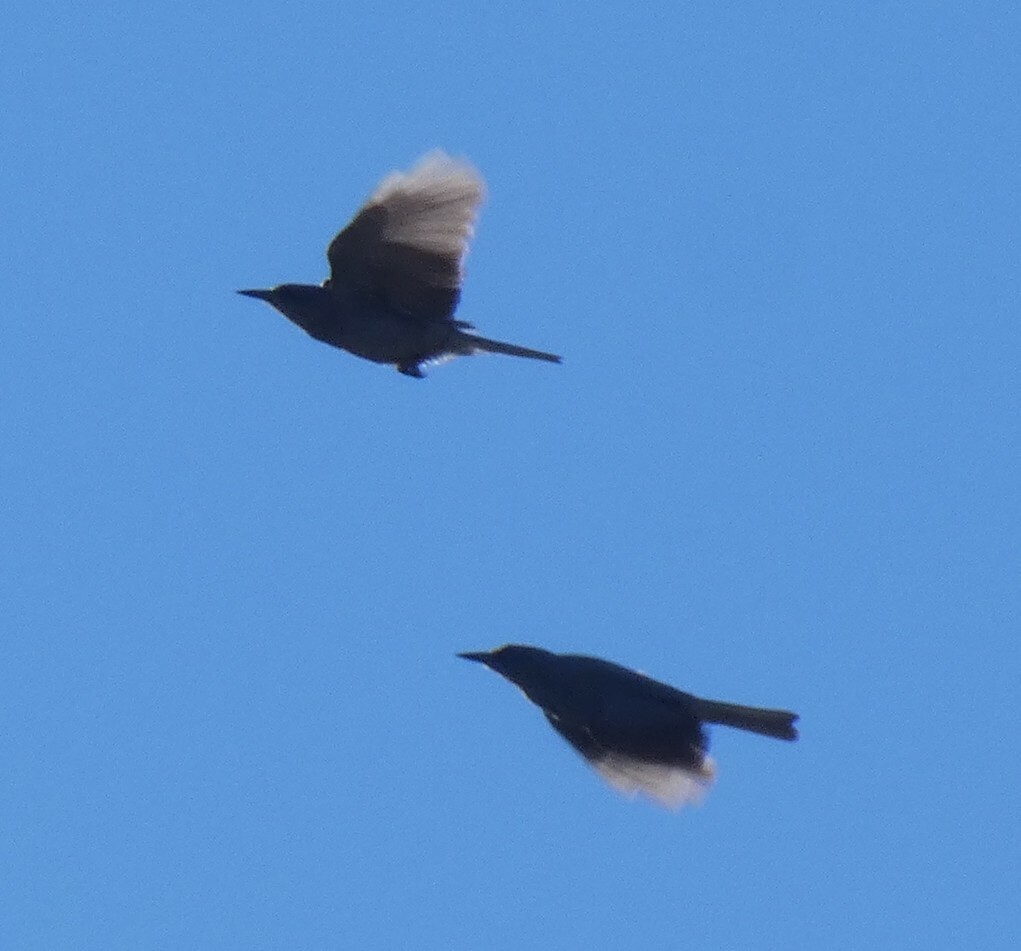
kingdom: Animalia
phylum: Chordata
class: Aves
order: Passeriformes
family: Corvidae
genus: Gymnorhinus
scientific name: Gymnorhinus cyanocephalus
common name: Pinyon jay
